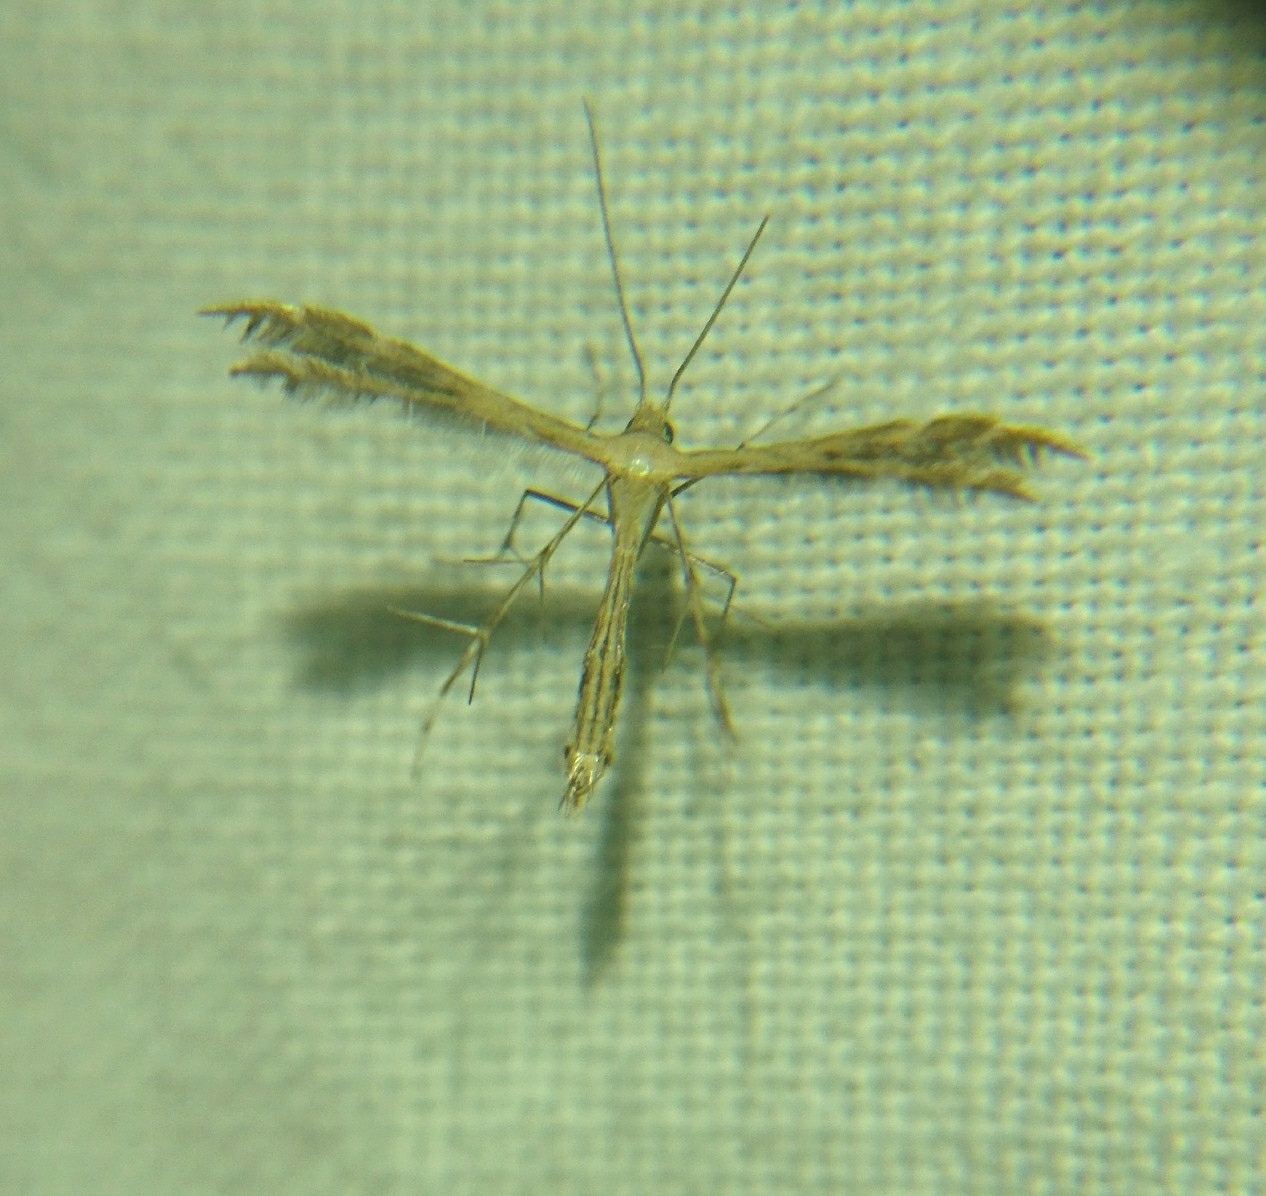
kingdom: Animalia
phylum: Arthropoda
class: Insecta
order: Lepidoptera
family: Pterophoridae
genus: Buckleria
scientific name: Buckleria parvulus
